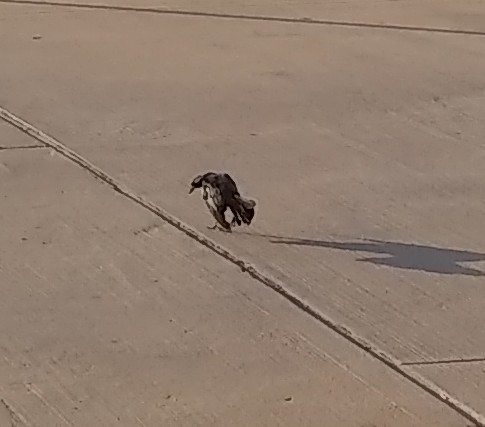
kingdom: Animalia
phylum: Chordata
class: Aves
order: Passeriformes
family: Icteridae
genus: Quiscalus
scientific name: Quiscalus mexicanus
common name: Great-tailed grackle
